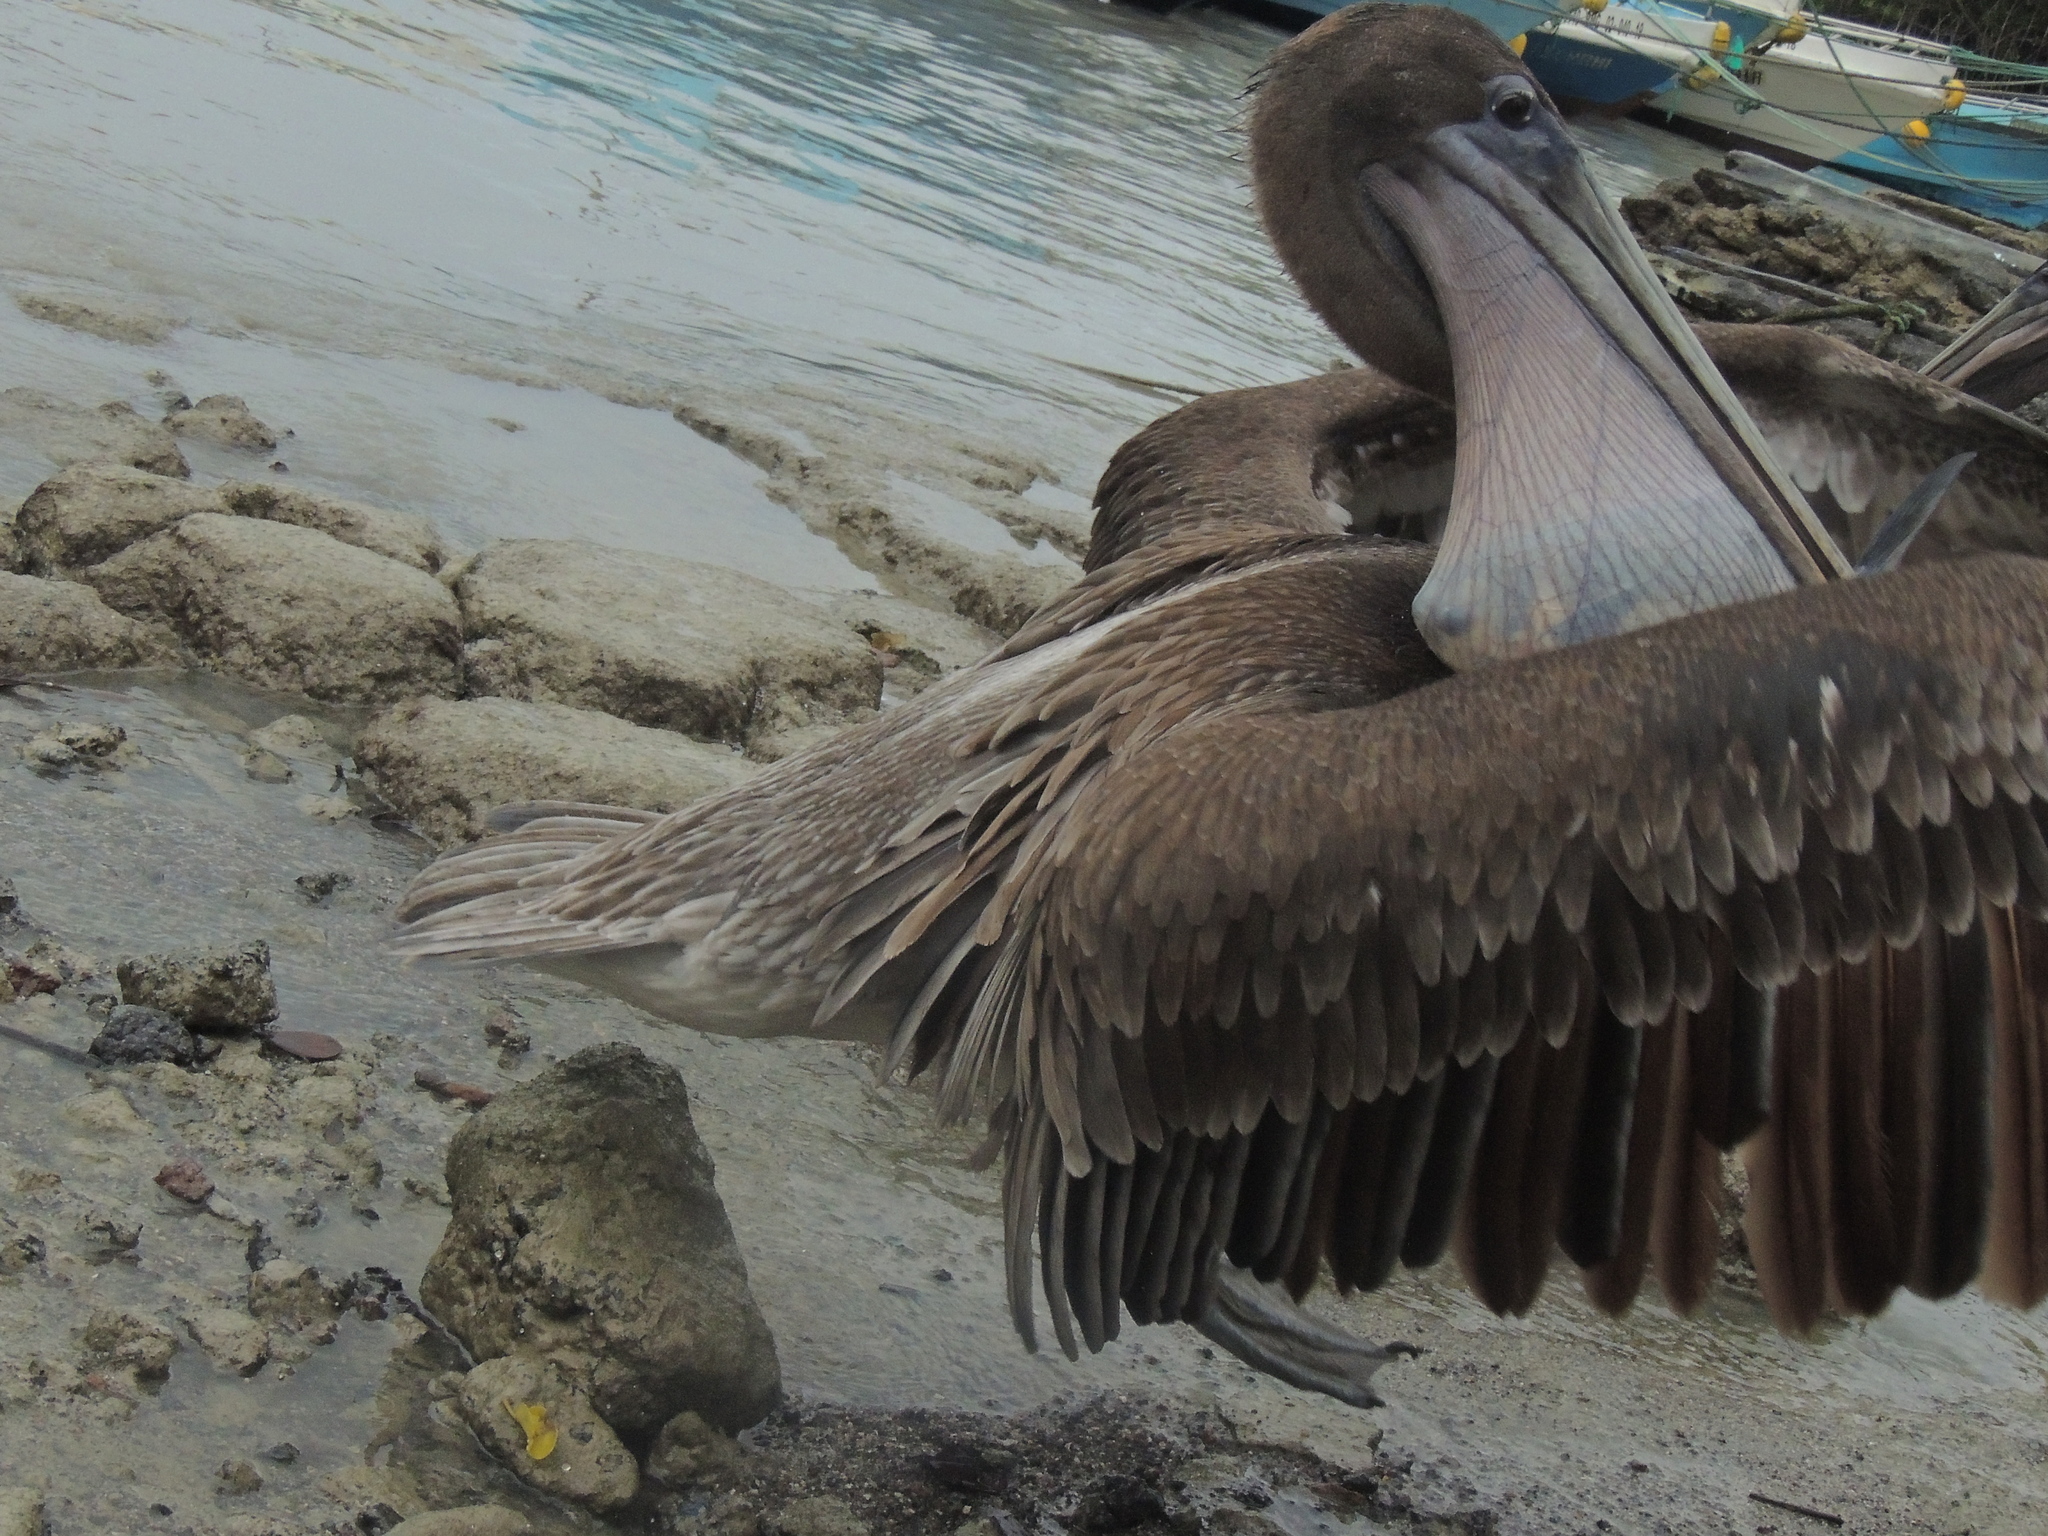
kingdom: Animalia
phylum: Chordata
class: Aves
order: Pelecaniformes
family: Pelecanidae
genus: Pelecanus
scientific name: Pelecanus occidentalis
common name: Brown pelican
